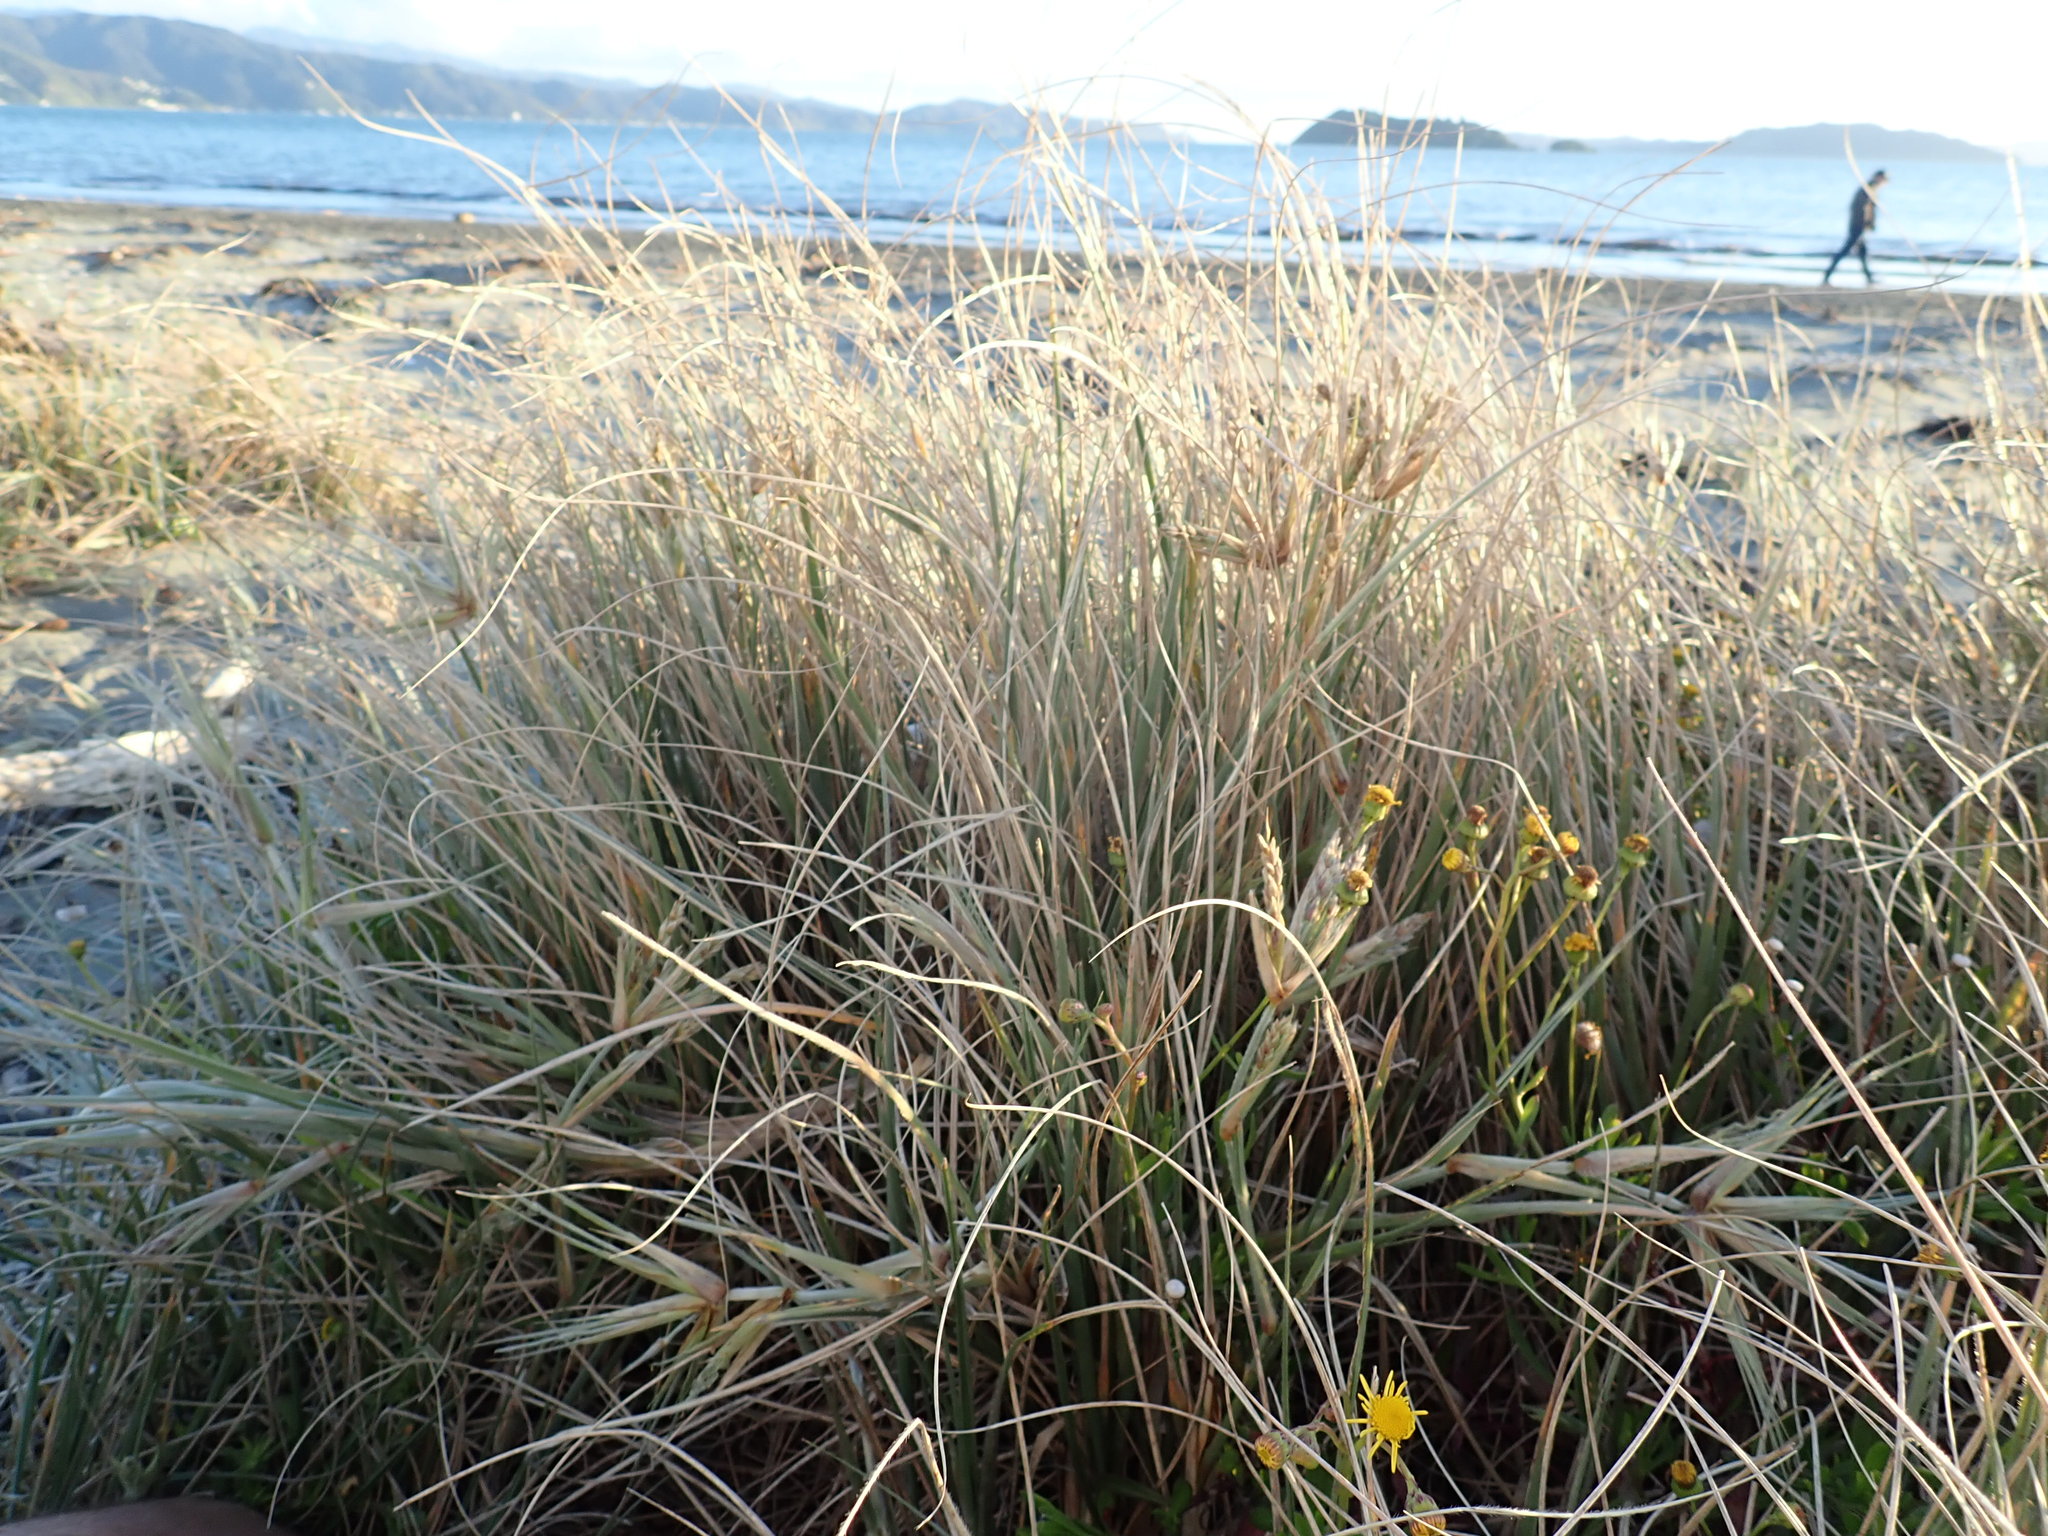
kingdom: Plantae
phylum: Tracheophyta
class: Liliopsida
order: Poales
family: Poaceae
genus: Spinifex
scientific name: Spinifex sericeus
